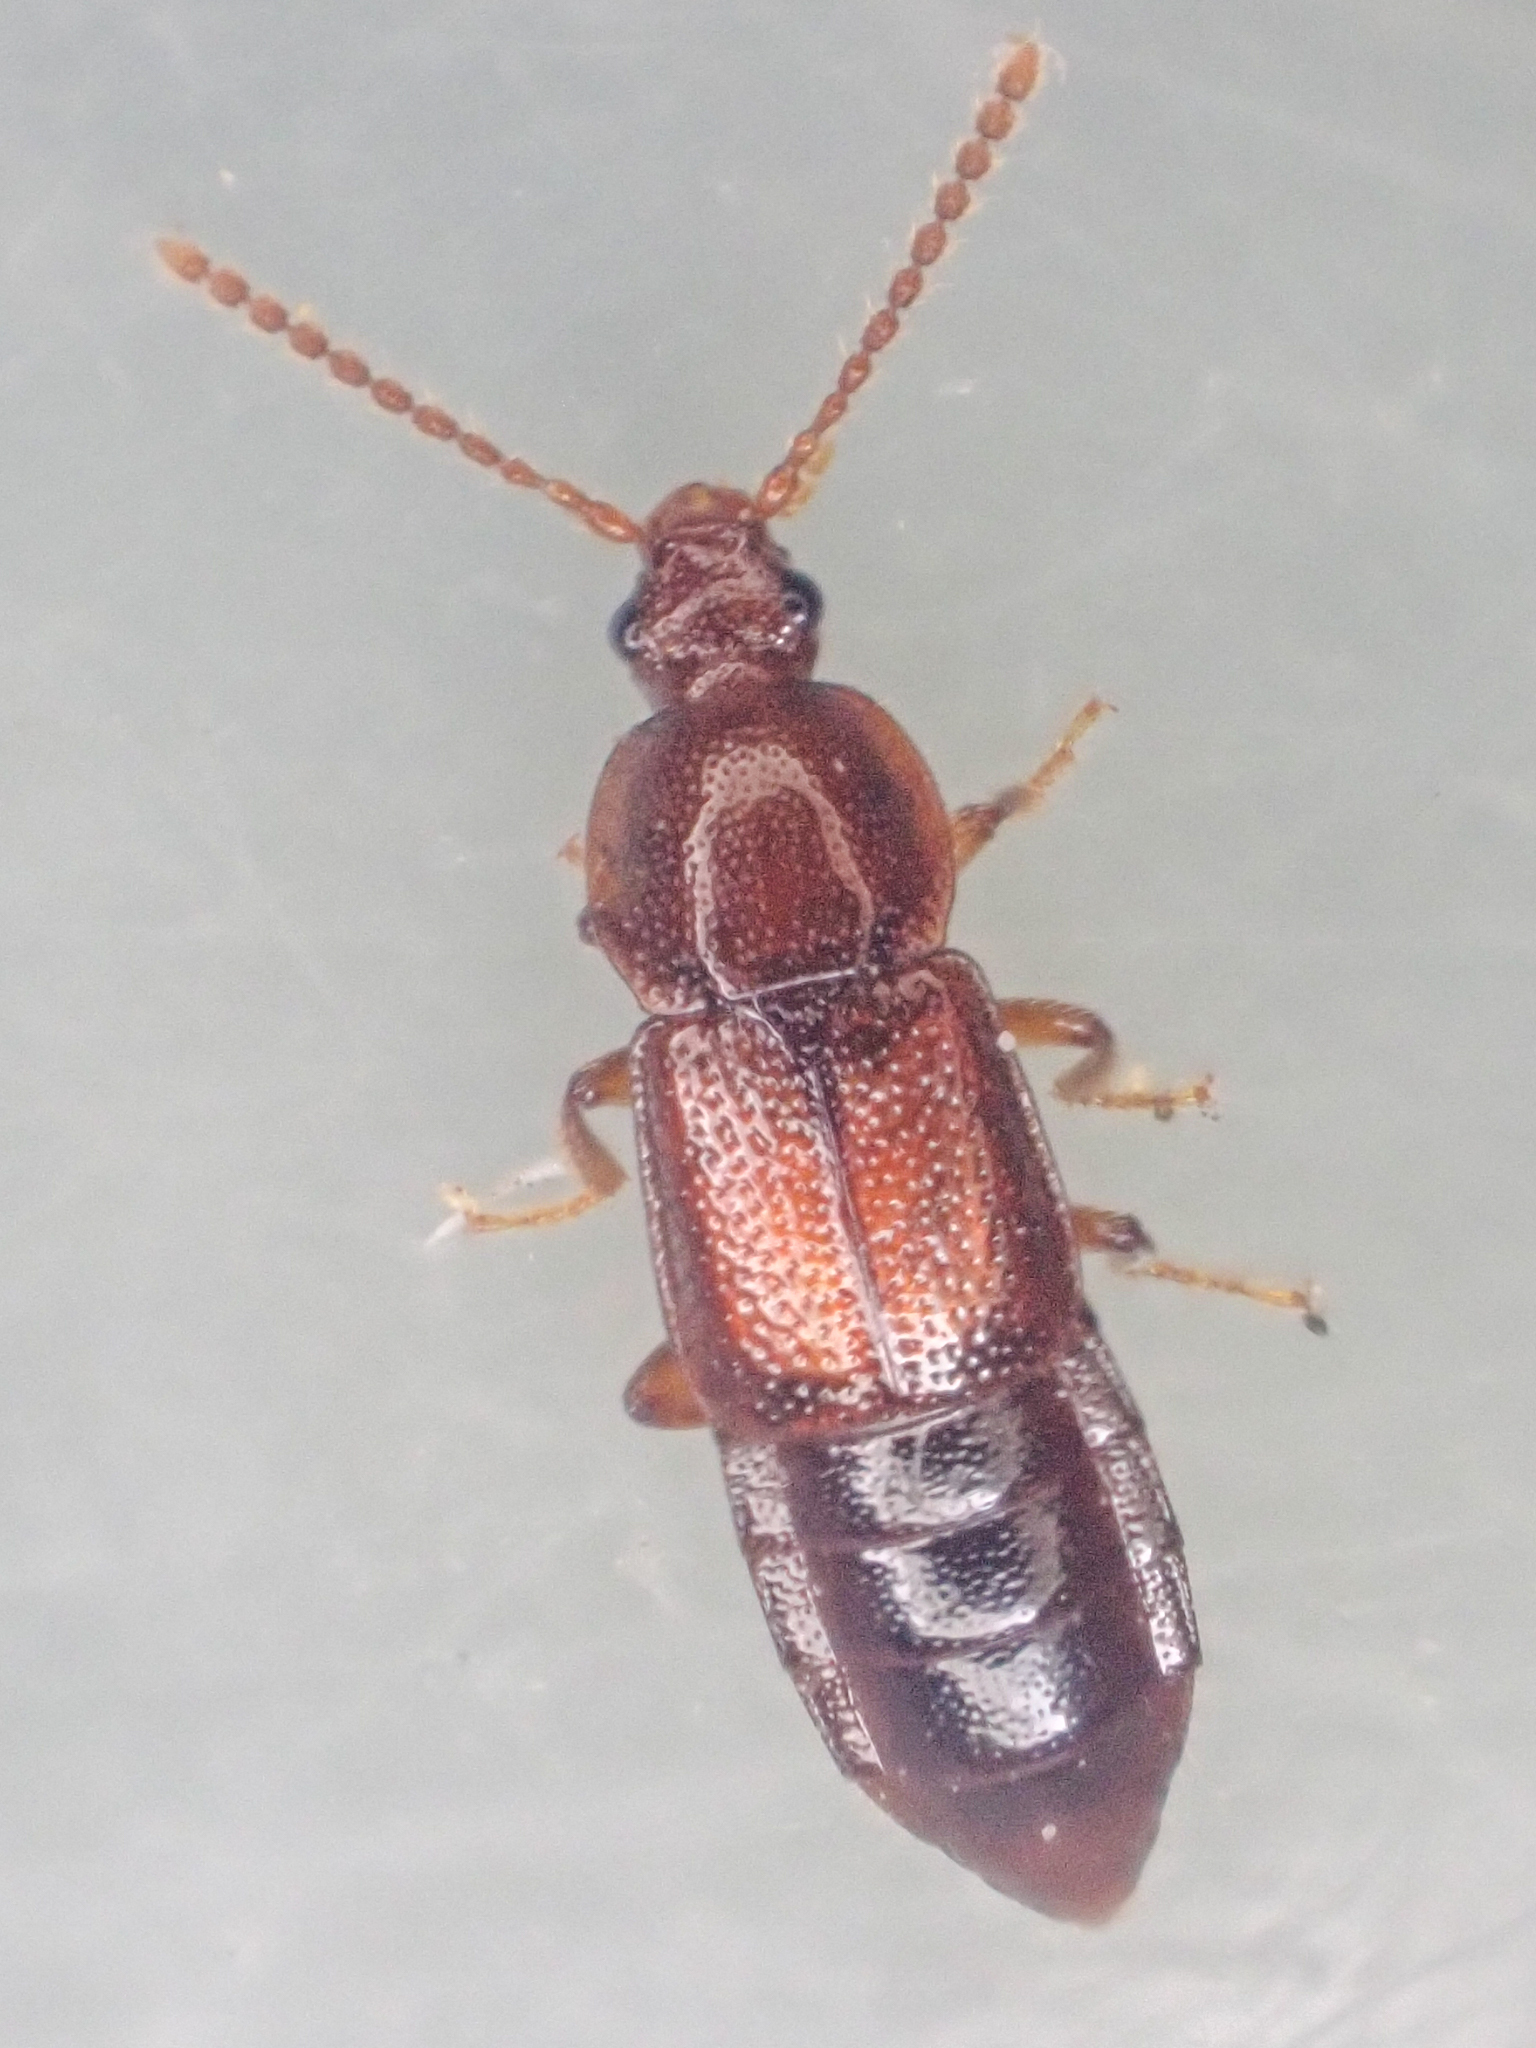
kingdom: Animalia
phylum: Arthropoda
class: Insecta
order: Coleoptera
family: Staphylinidae
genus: Acidota
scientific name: Acidota crenata
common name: Staph beetle
